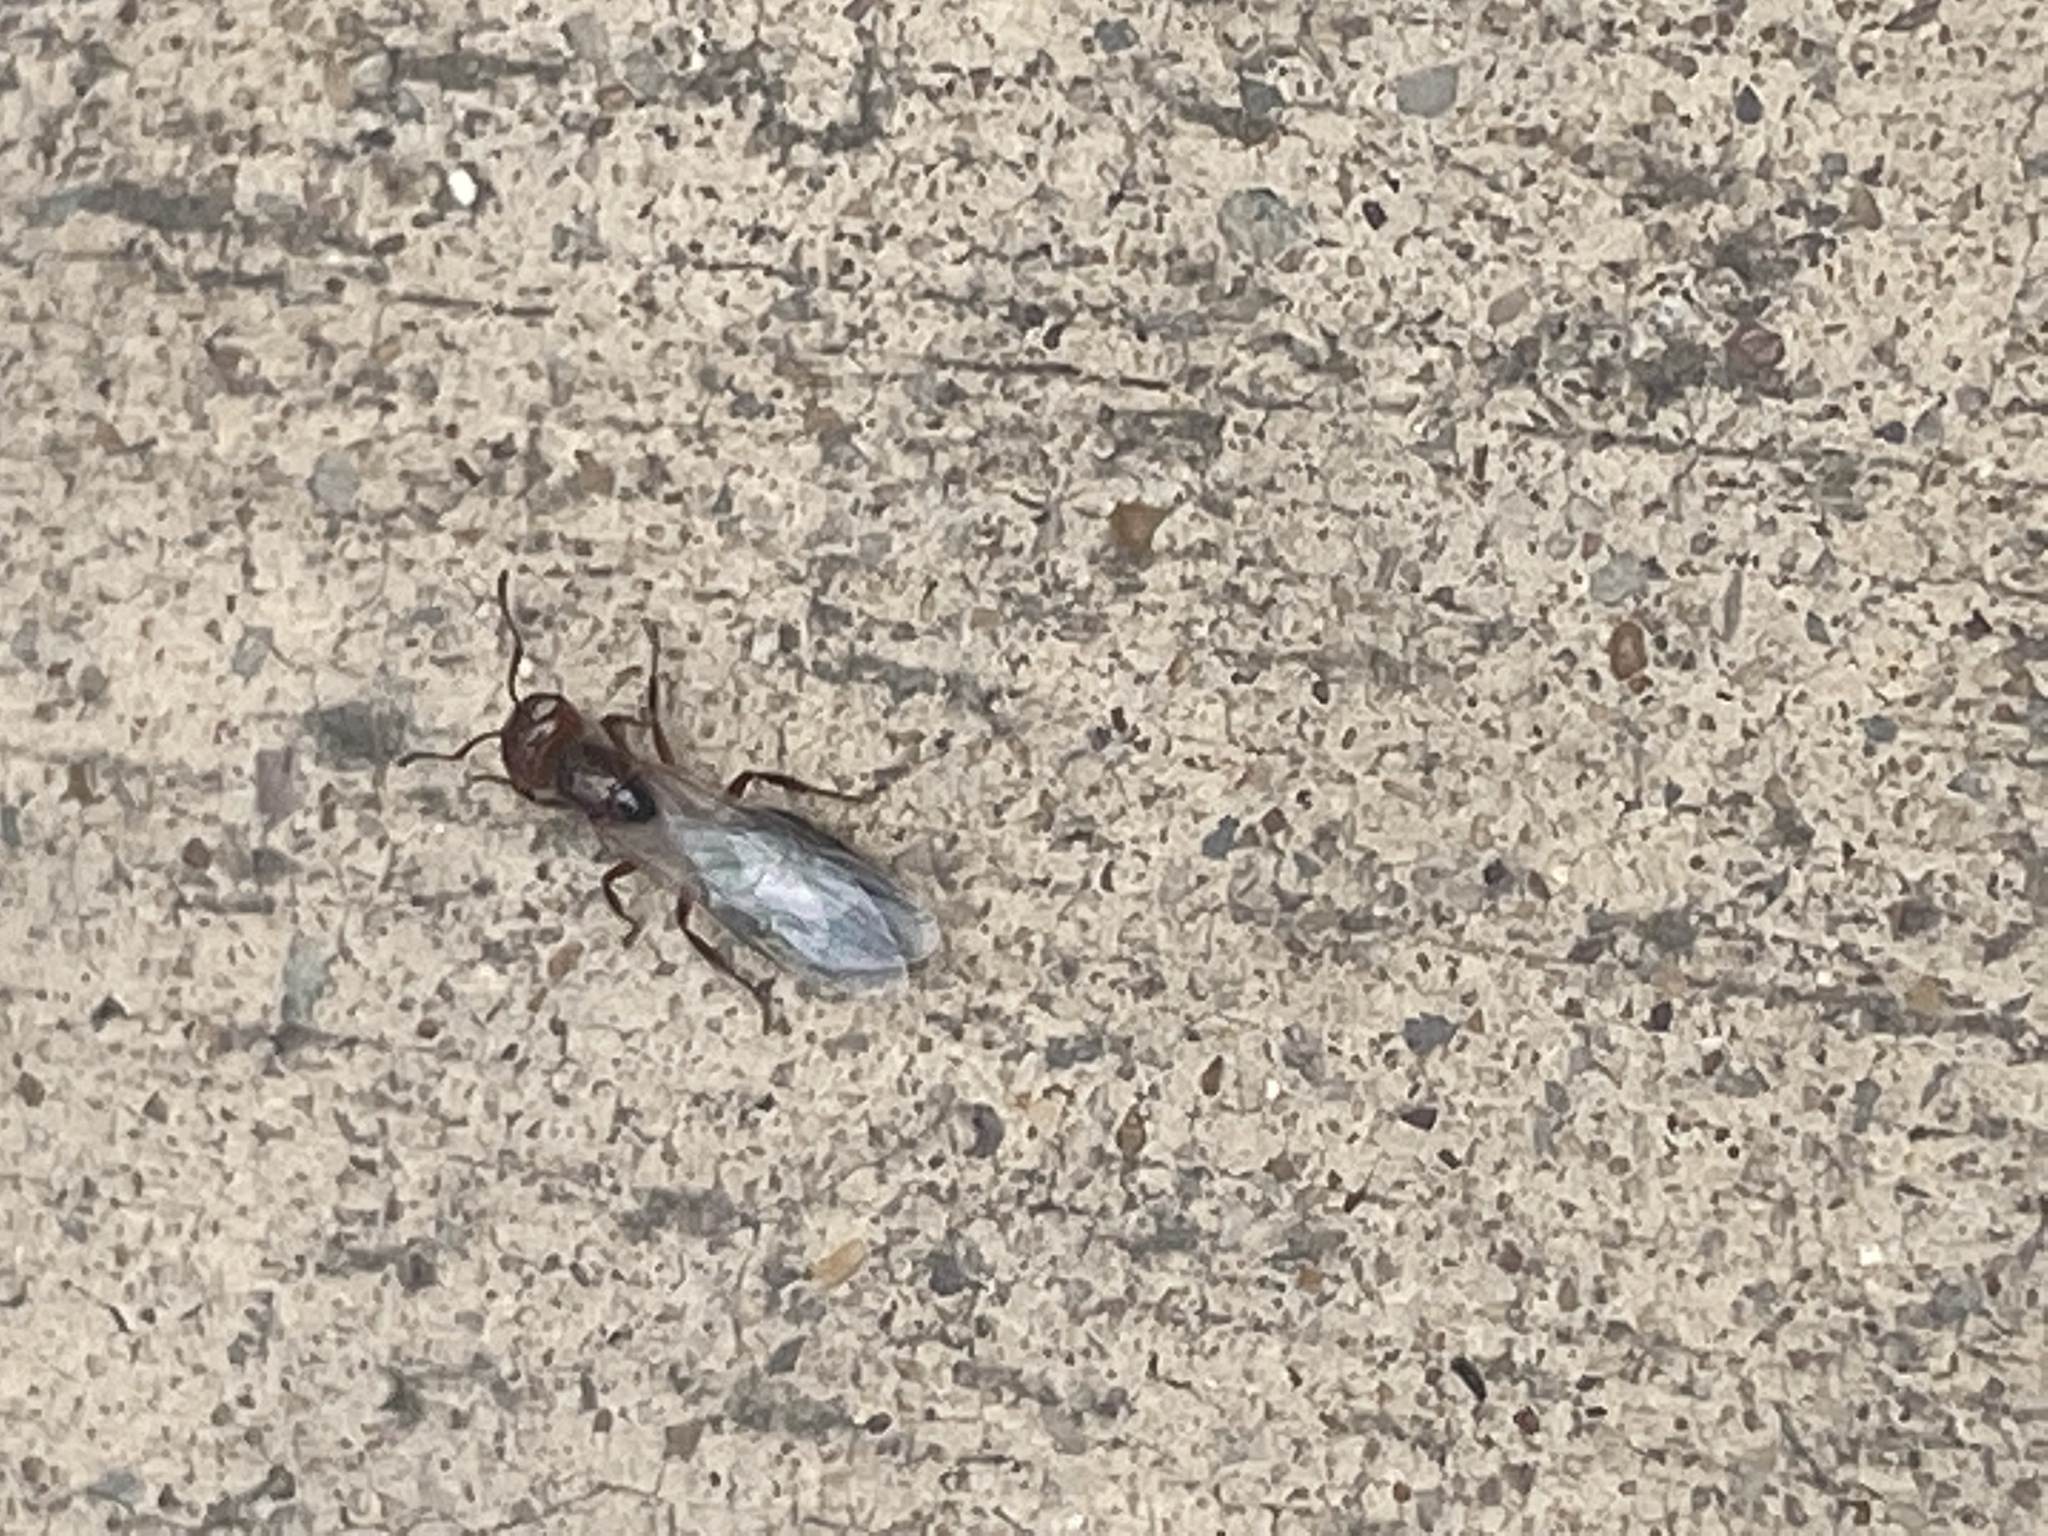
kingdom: Animalia
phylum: Arthropoda
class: Insecta
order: Hymenoptera
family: Formicidae
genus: Crematogaster
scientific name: Crematogaster laeviuscula
